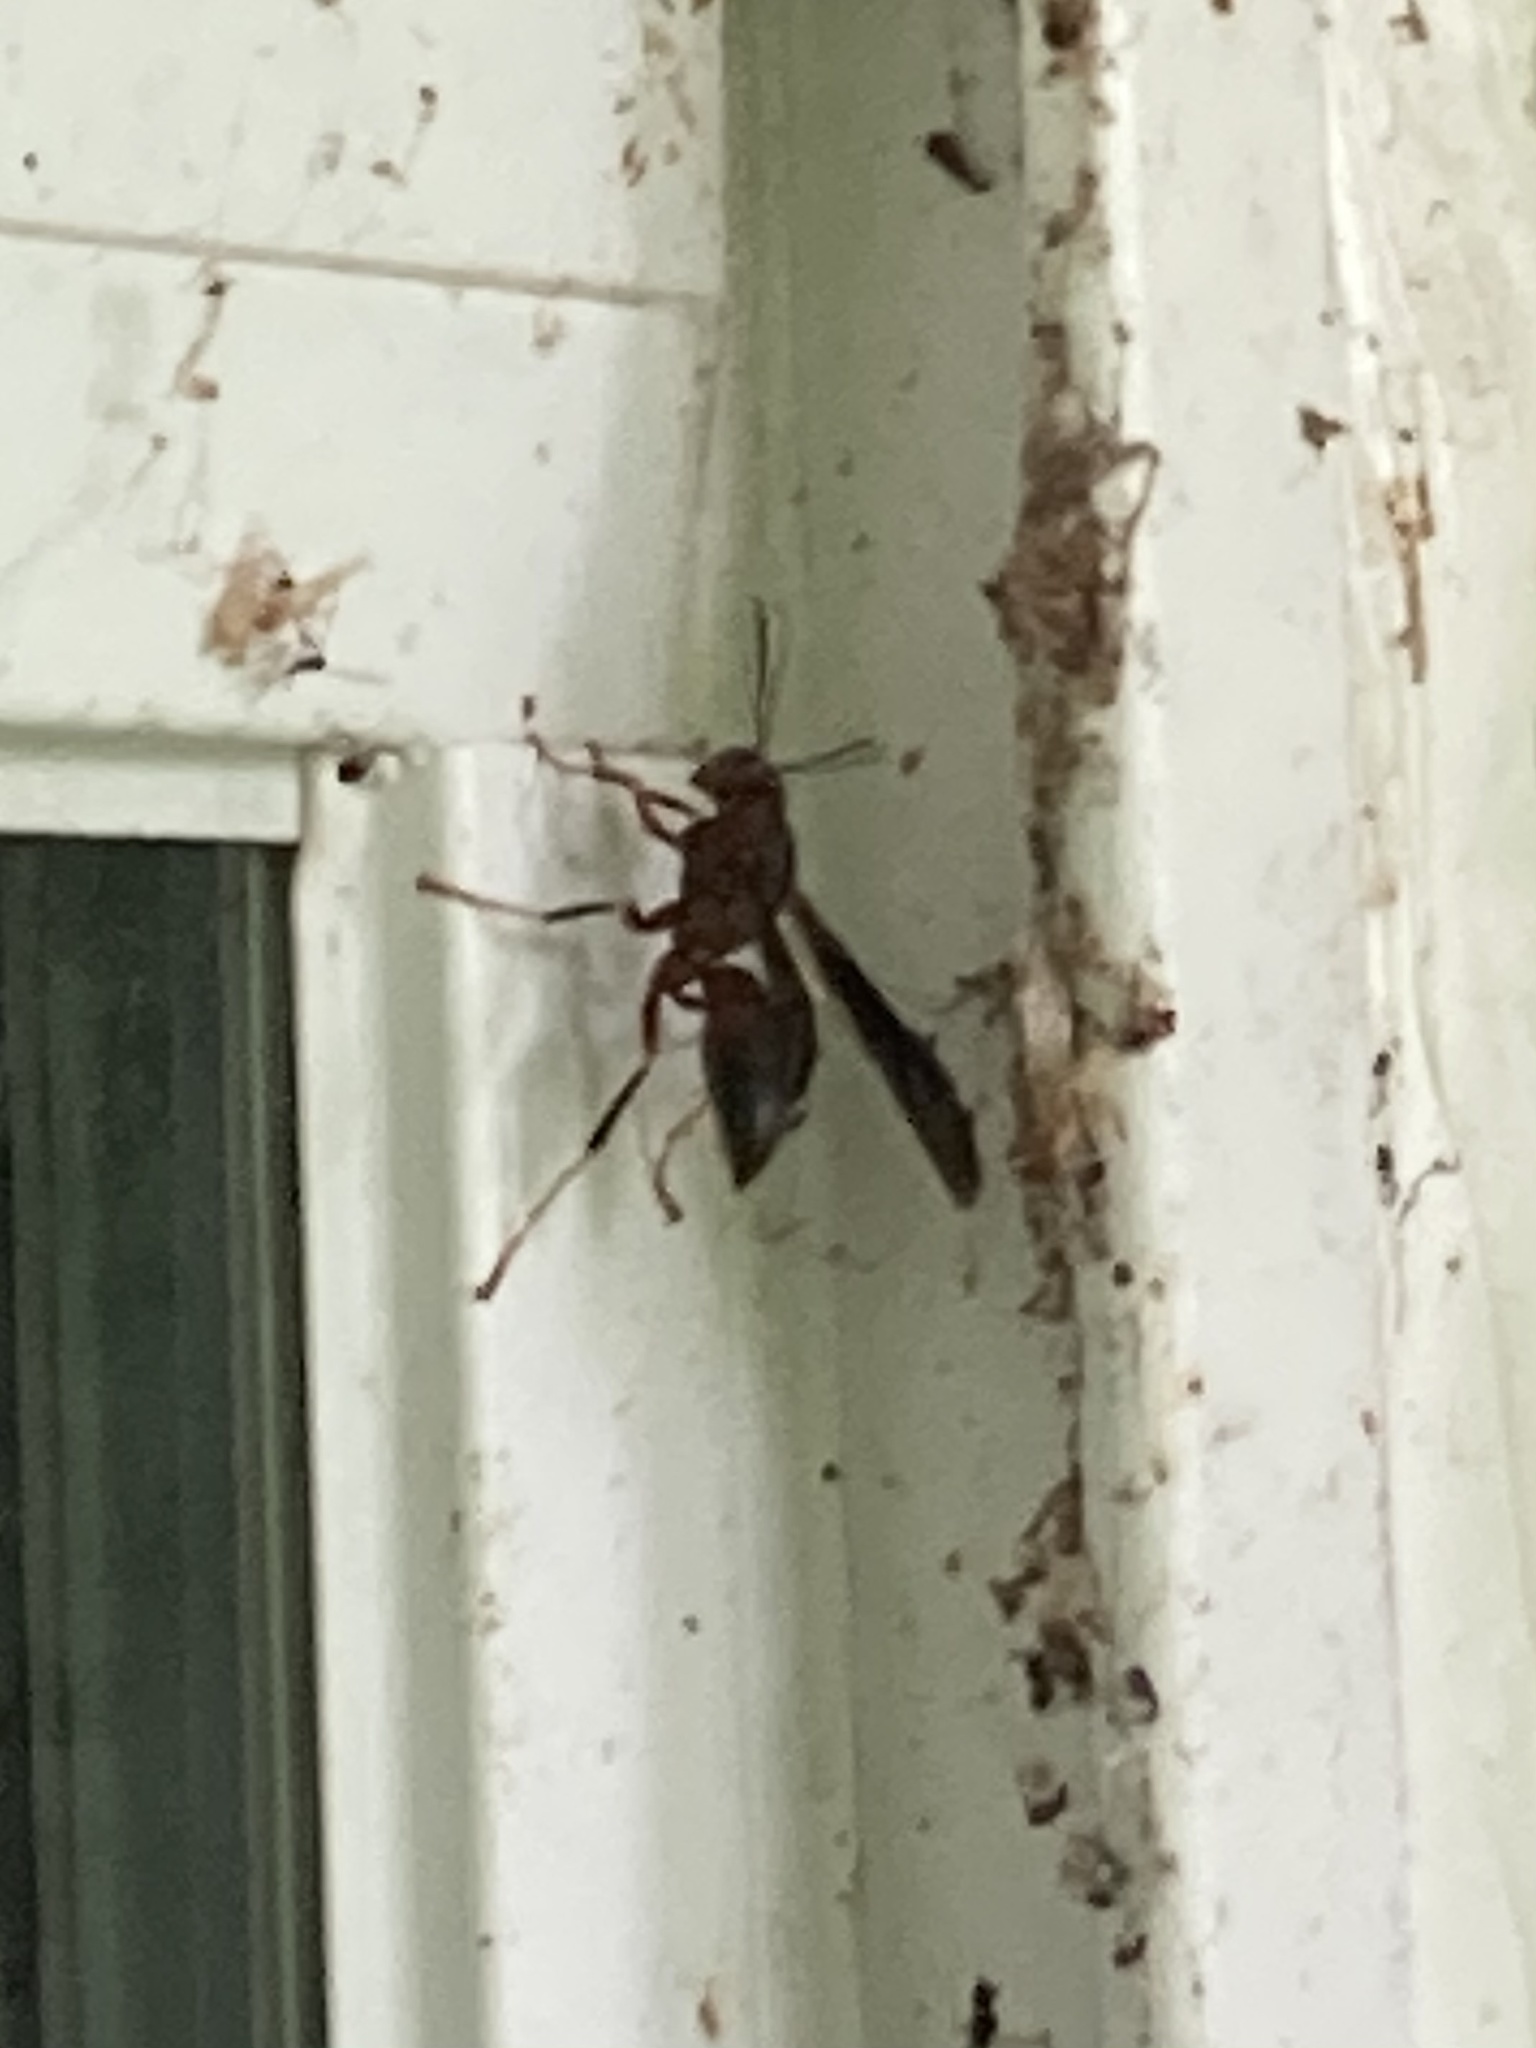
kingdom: Animalia
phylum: Arthropoda
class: Insecta
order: Hymenoptera
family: Eumenidae
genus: Polistes
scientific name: Polistes metricus
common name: Metric paper wasp
